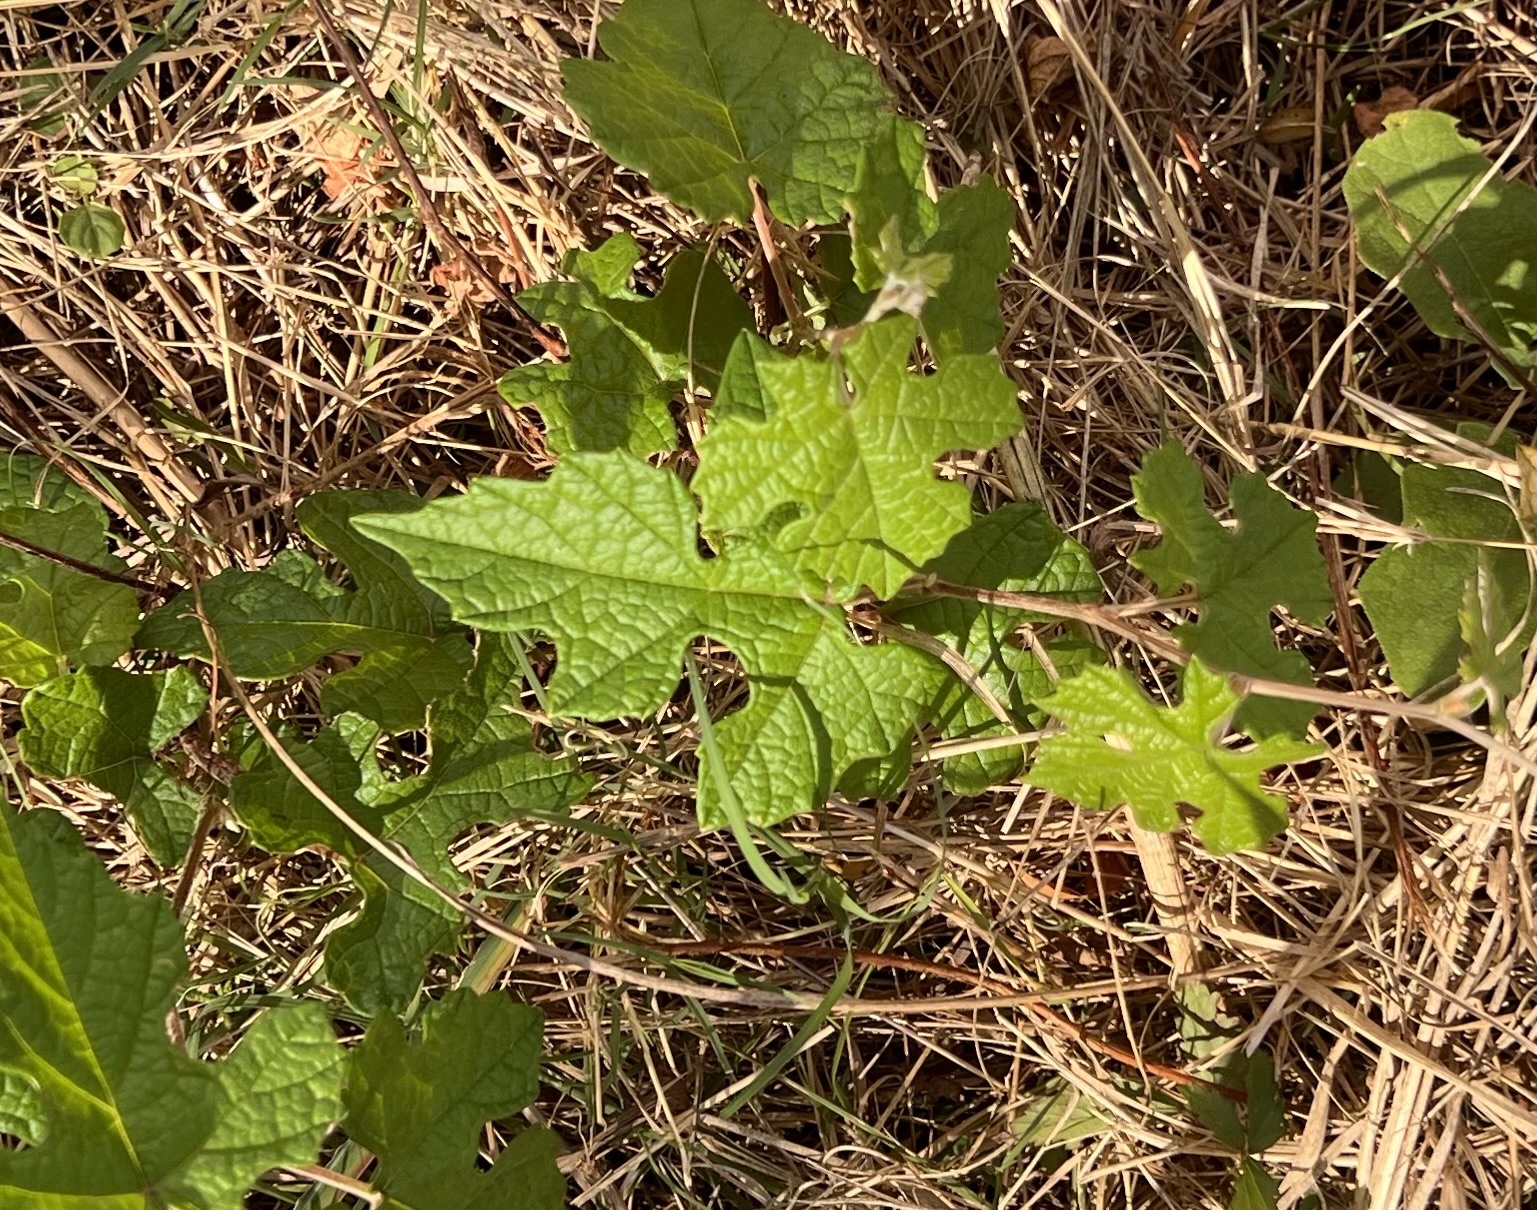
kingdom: Plantae
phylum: Tracheophyta
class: Magnoliopsida
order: Vitales
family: Vitaceae
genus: Vitis
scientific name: Vitis mustangensis
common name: Mustang grape
